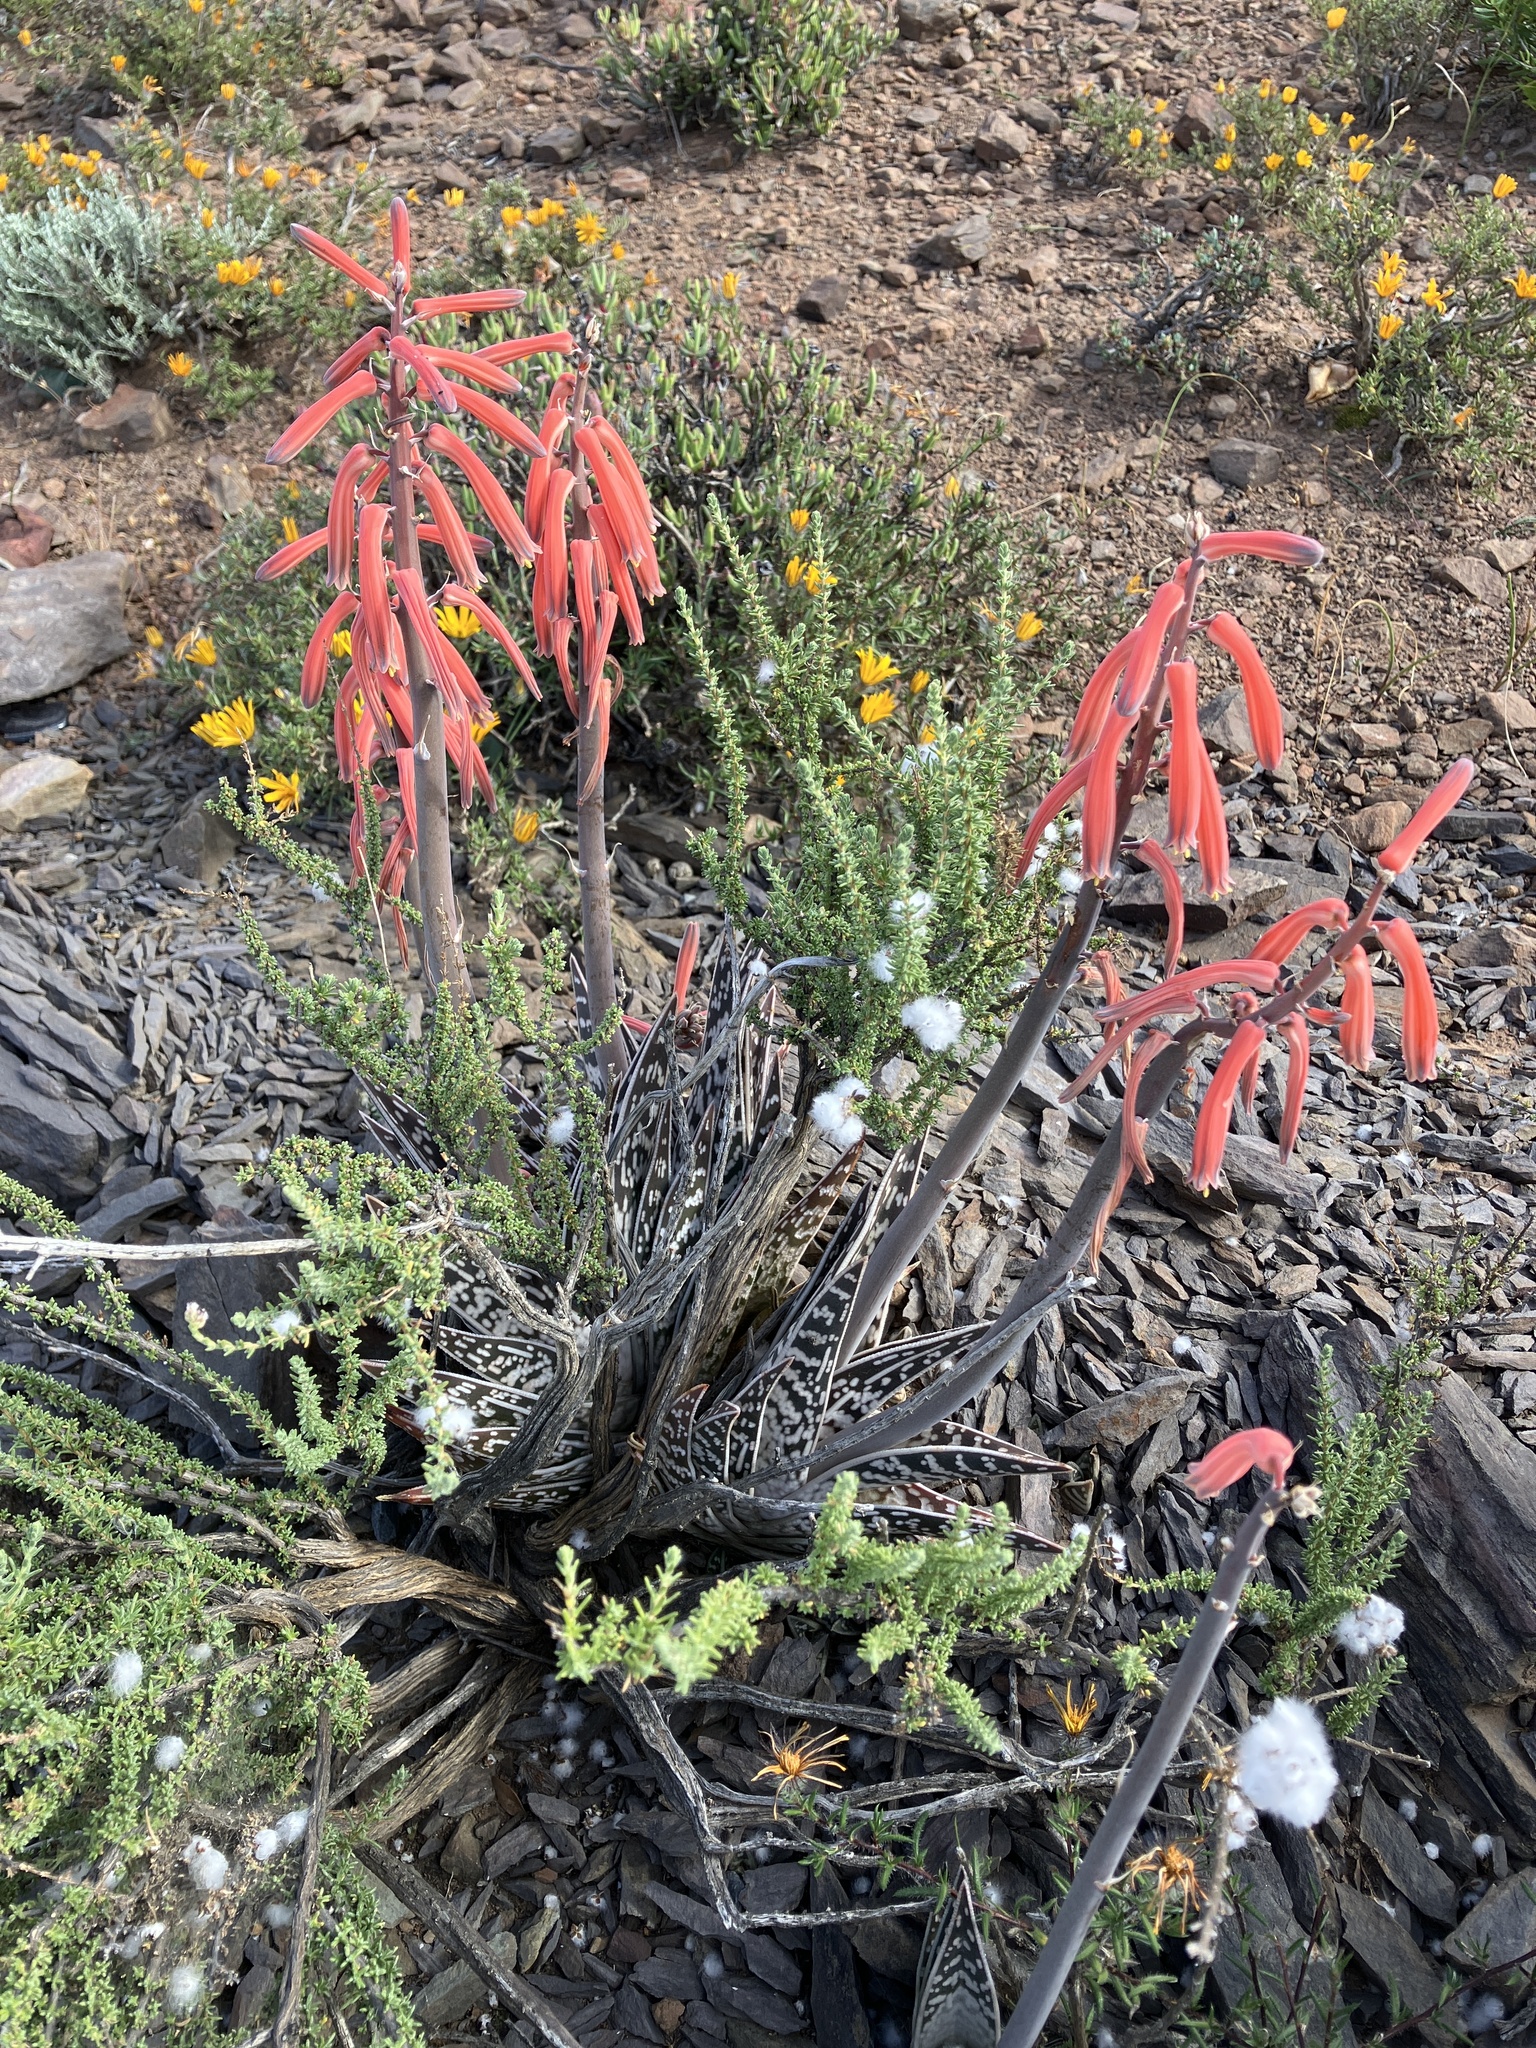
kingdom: Plantae
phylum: Tracheophyta
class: Liliopsida
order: Asparagales
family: Asphodelaceae
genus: Gonialoe
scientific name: Gonialoe variegata
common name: Aloe variegata
